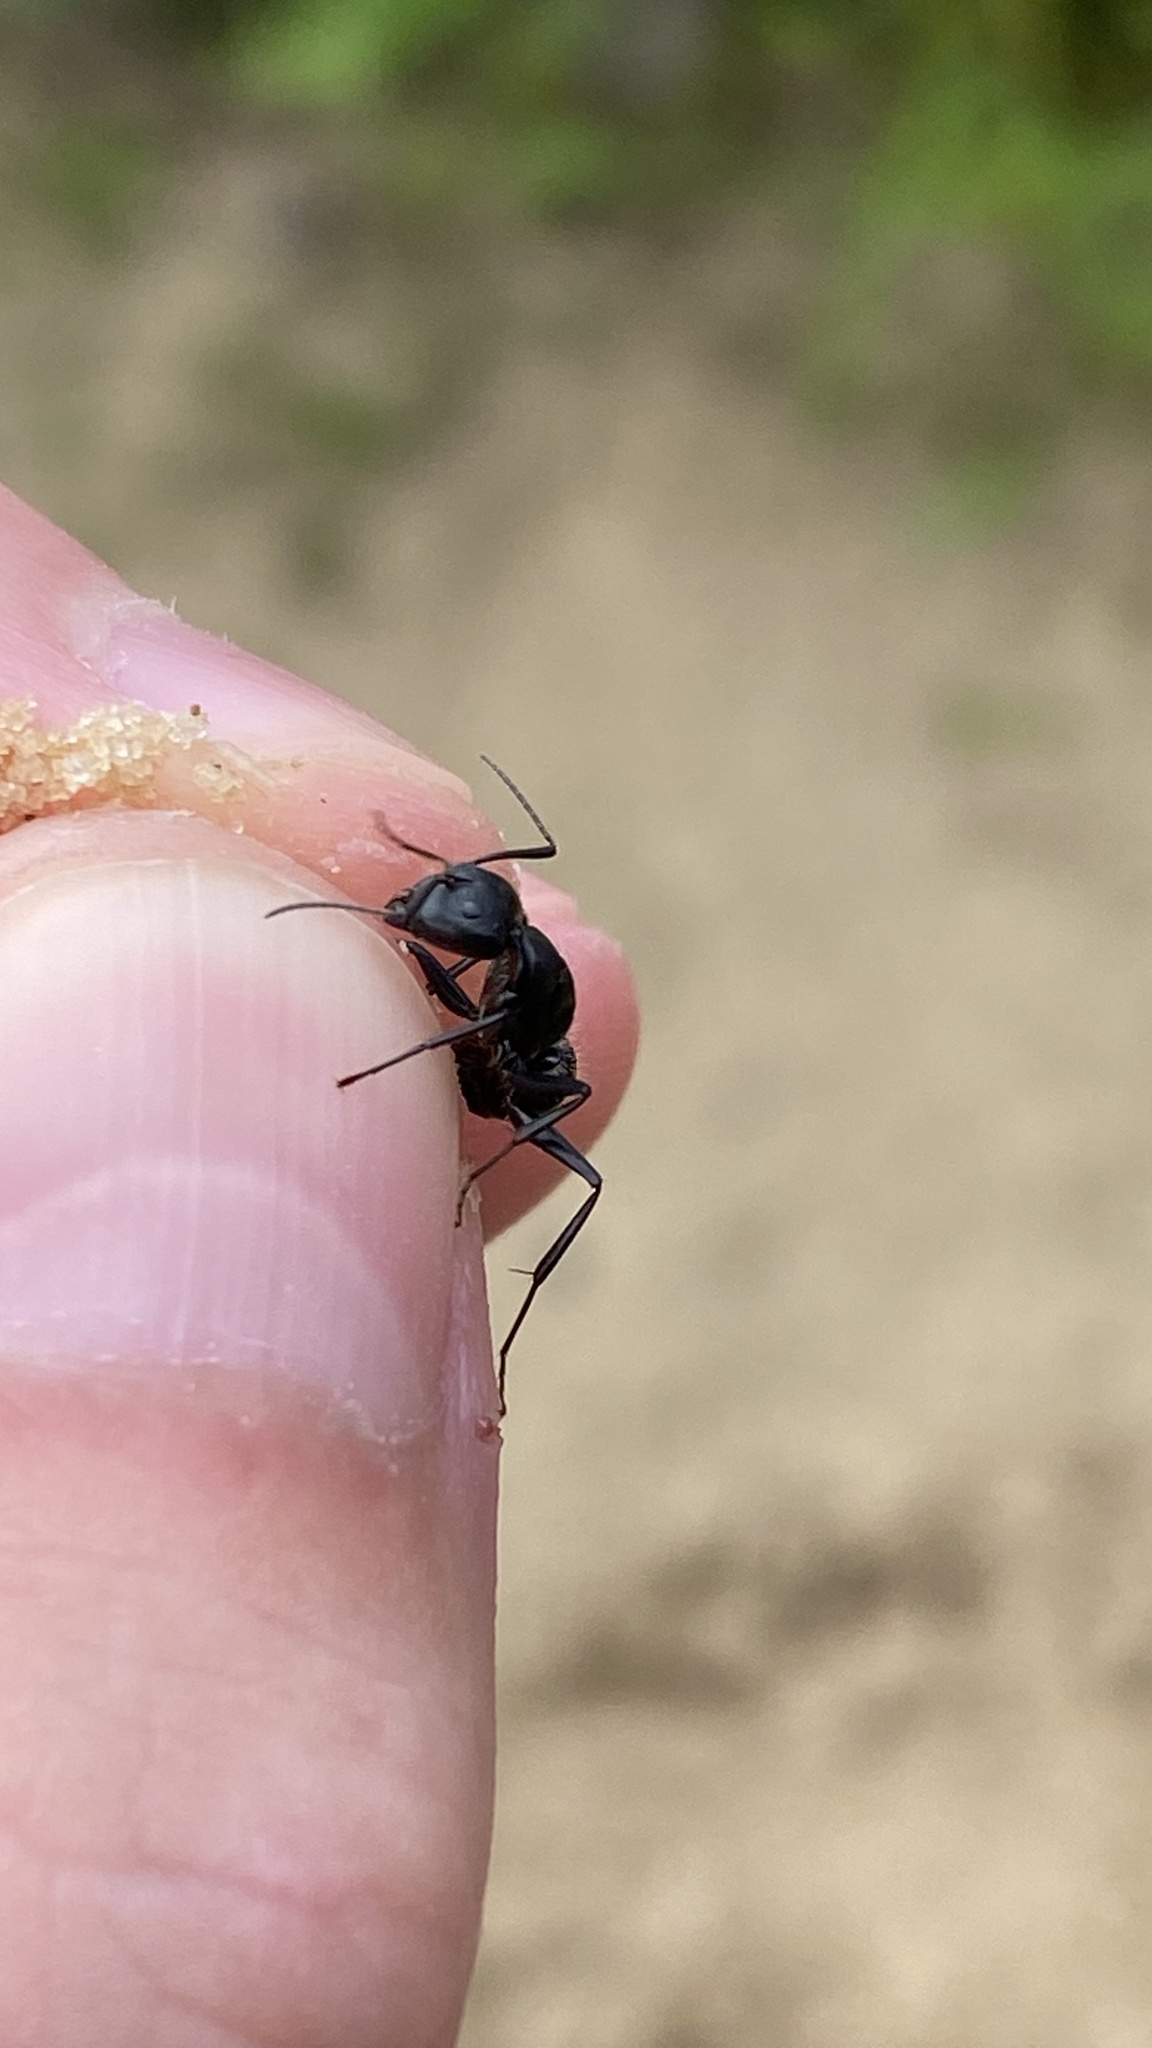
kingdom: Animalia
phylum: Arthropoda
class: Insecta
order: Hymenoptera
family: Formicidae
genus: Camponotus
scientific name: Camponotus vagus
